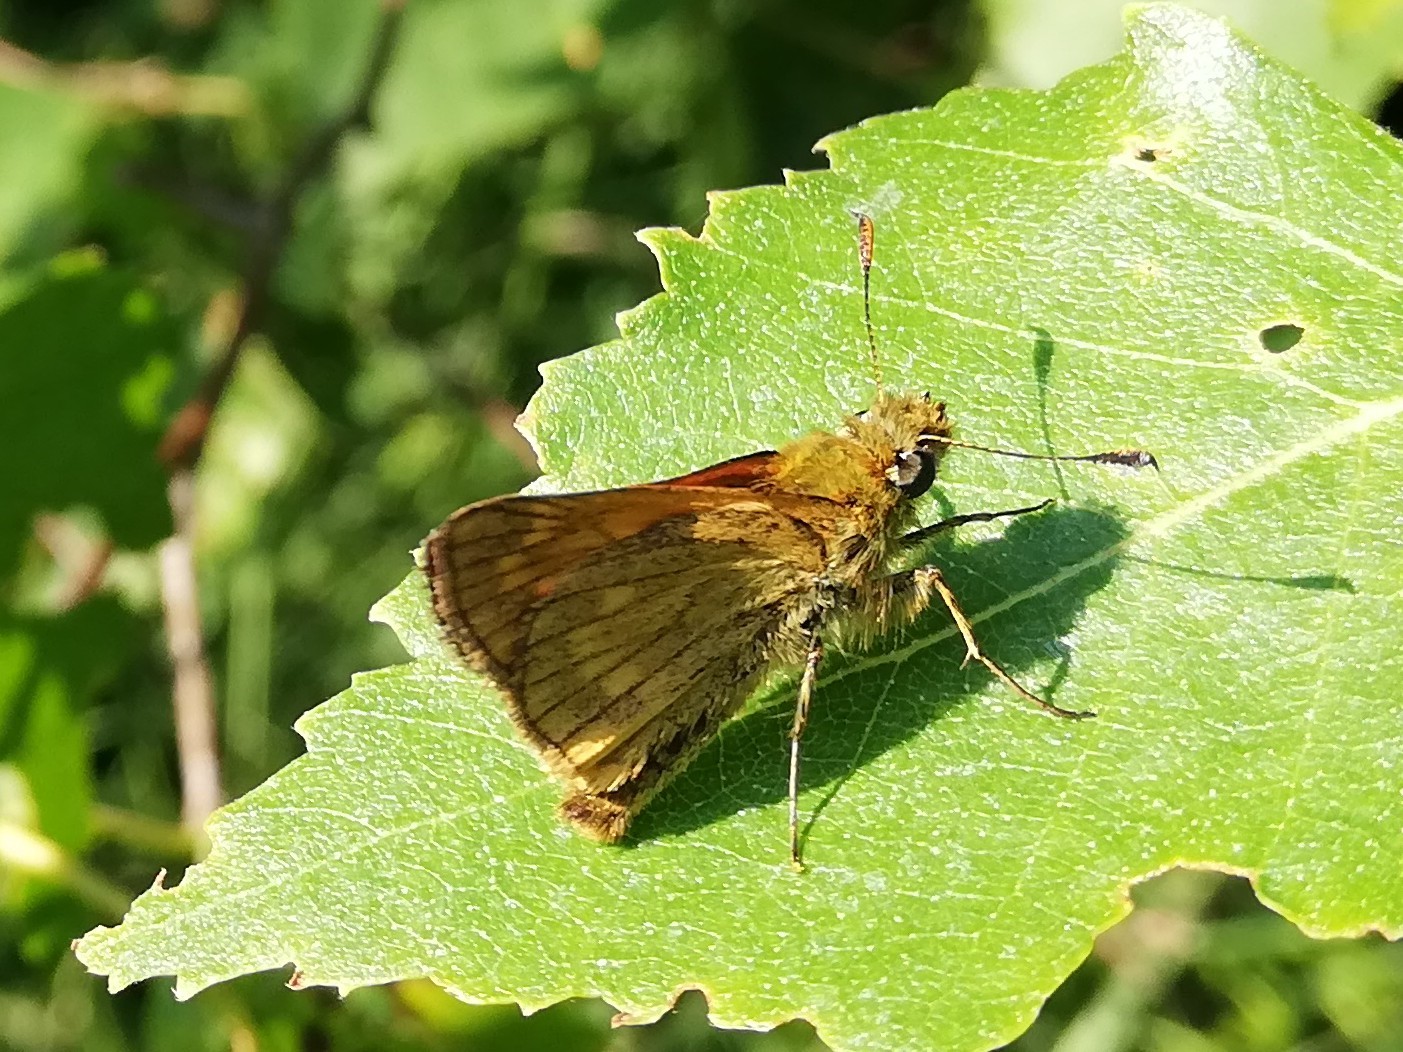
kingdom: Animalia
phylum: Arthropoda
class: Insecta
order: Lepidoptera
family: Hesperiidae
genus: Ochlodes
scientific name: Ochlodes venata
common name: Large skipper
